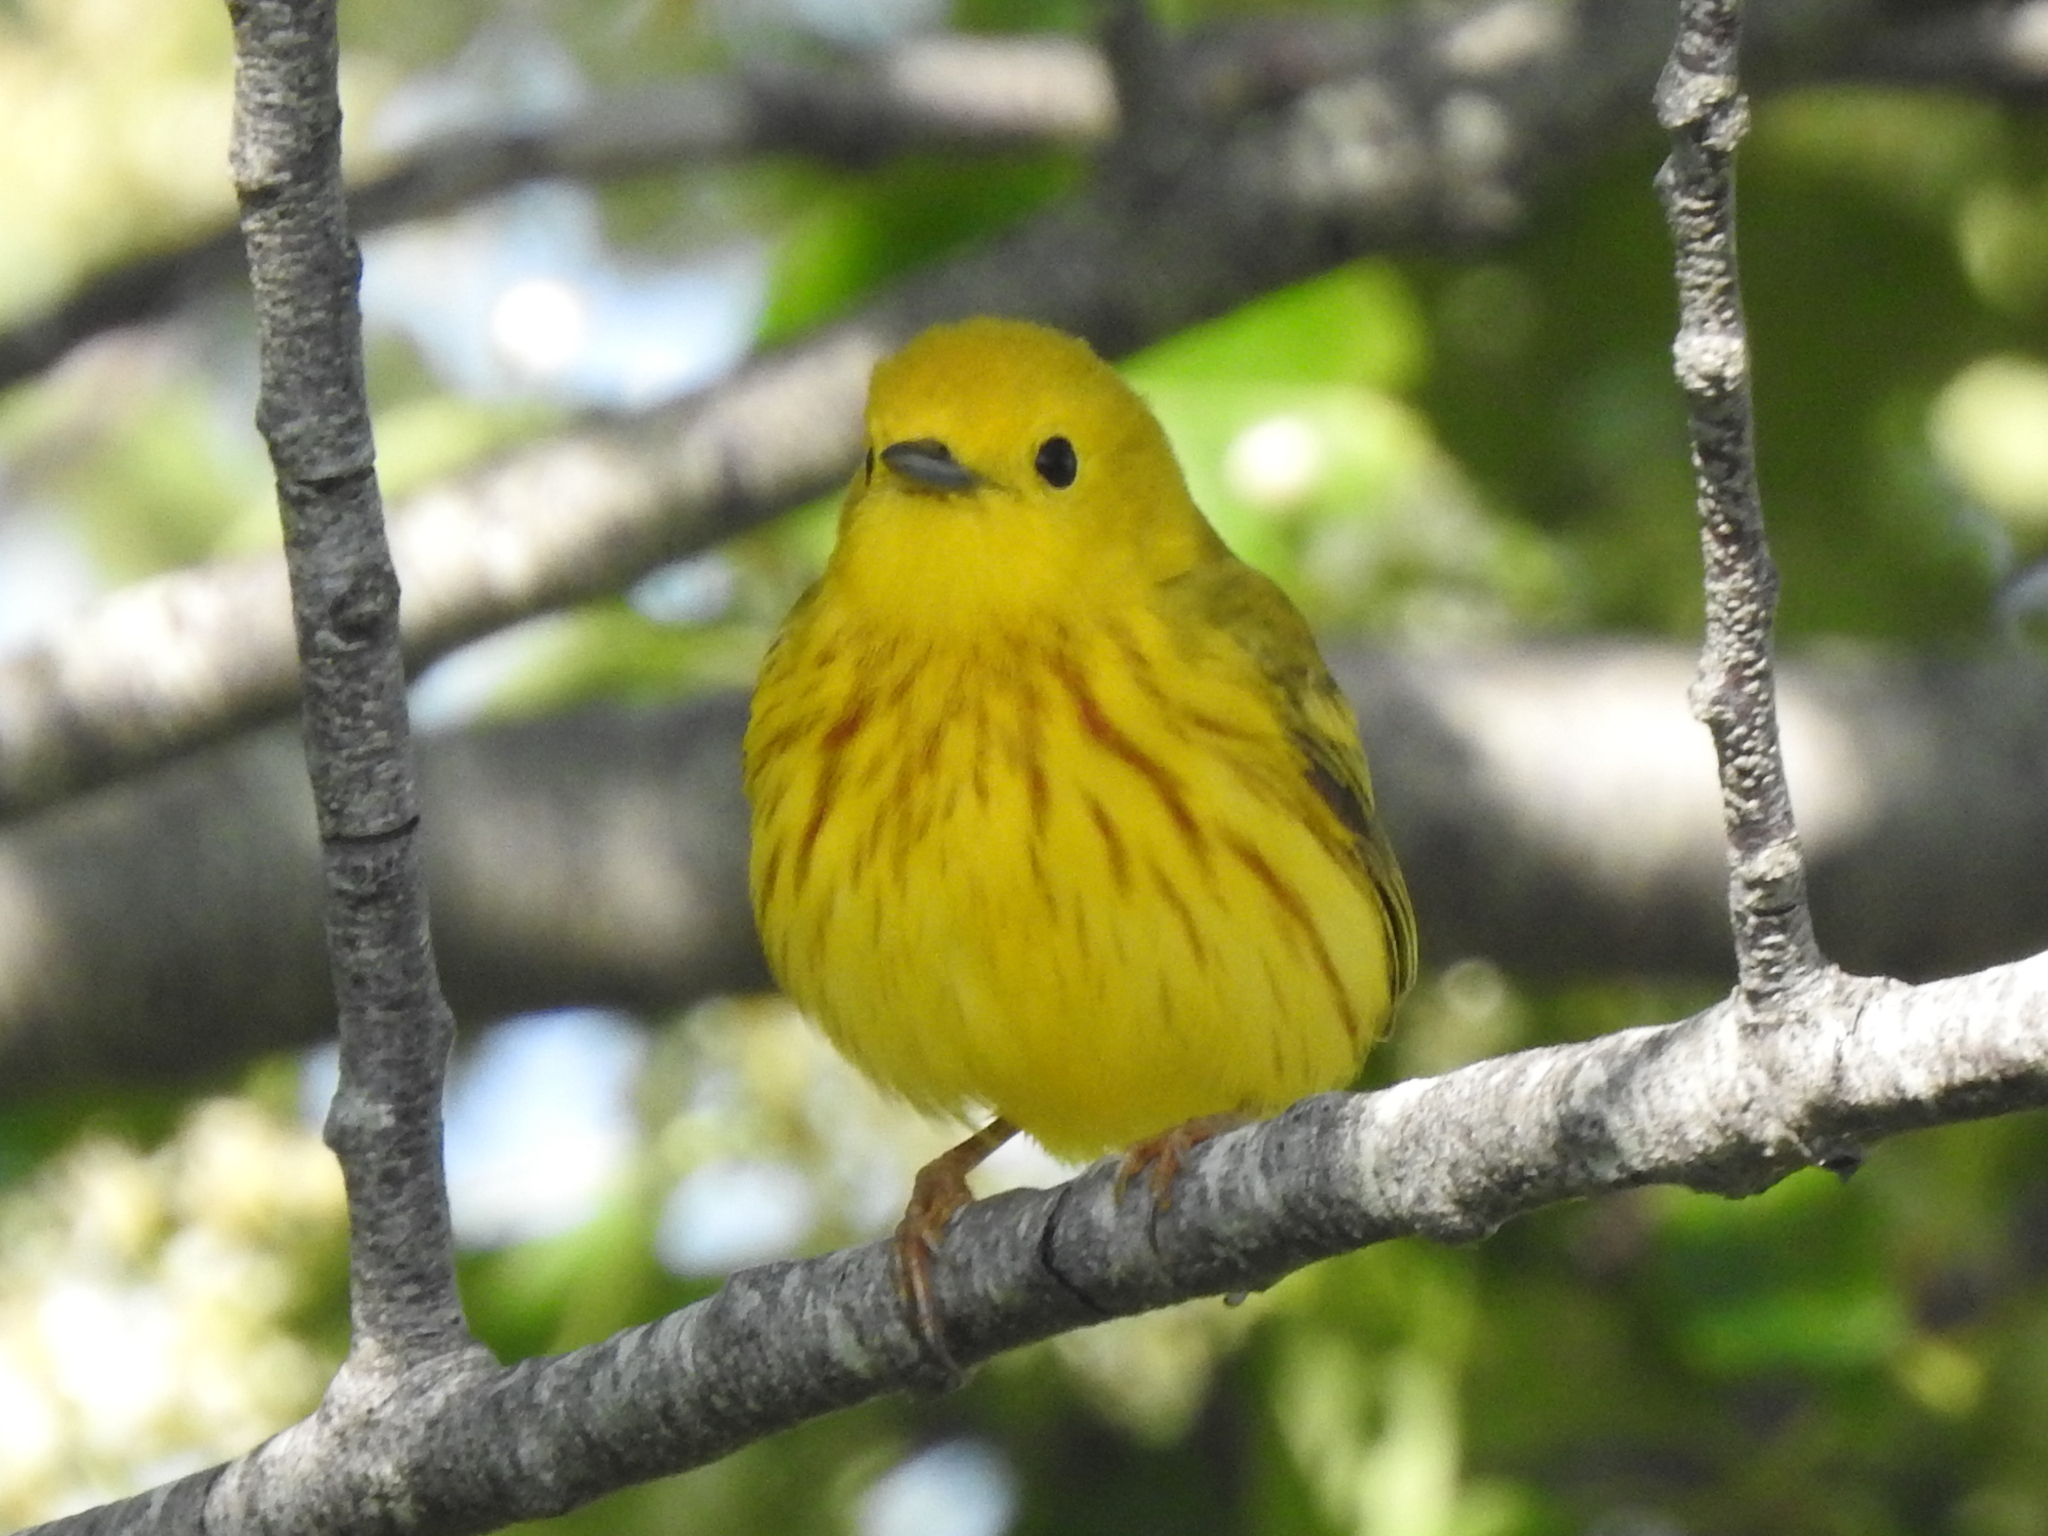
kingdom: Animalia
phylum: Chordata
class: Aves
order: Passeriformes
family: Parulidae
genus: Setophaga
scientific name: Setophaga petechia
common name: Yellow warbler
